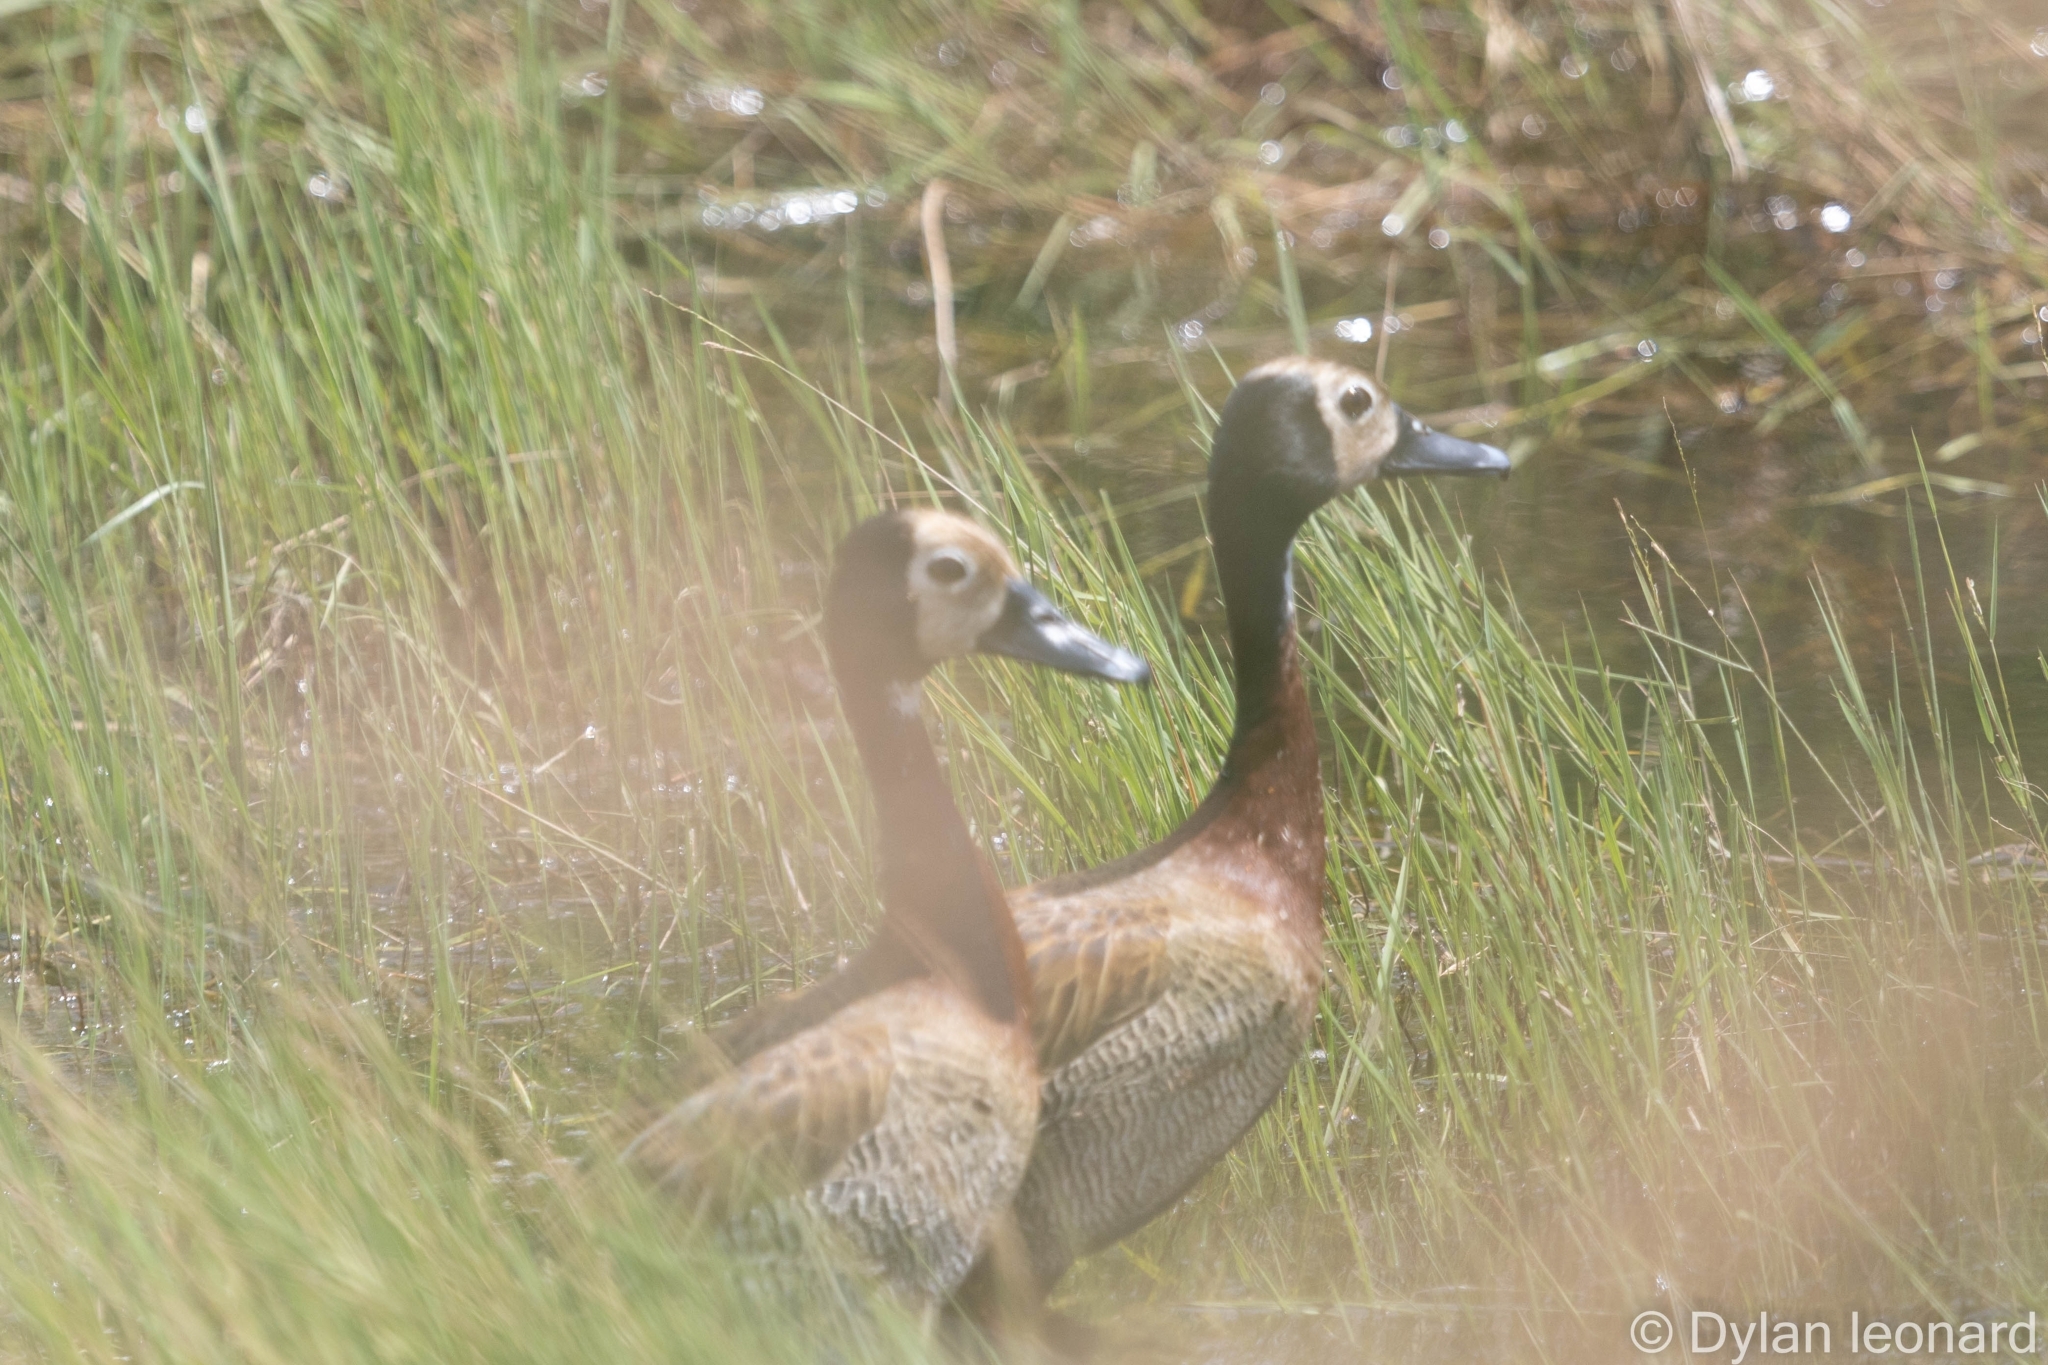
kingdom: Animalia
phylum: Chordata
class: Aves
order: Anseriformes
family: Anatidae
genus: Dendrocygna
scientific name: Dendrocygna viduata
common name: White-faced whistling duck
